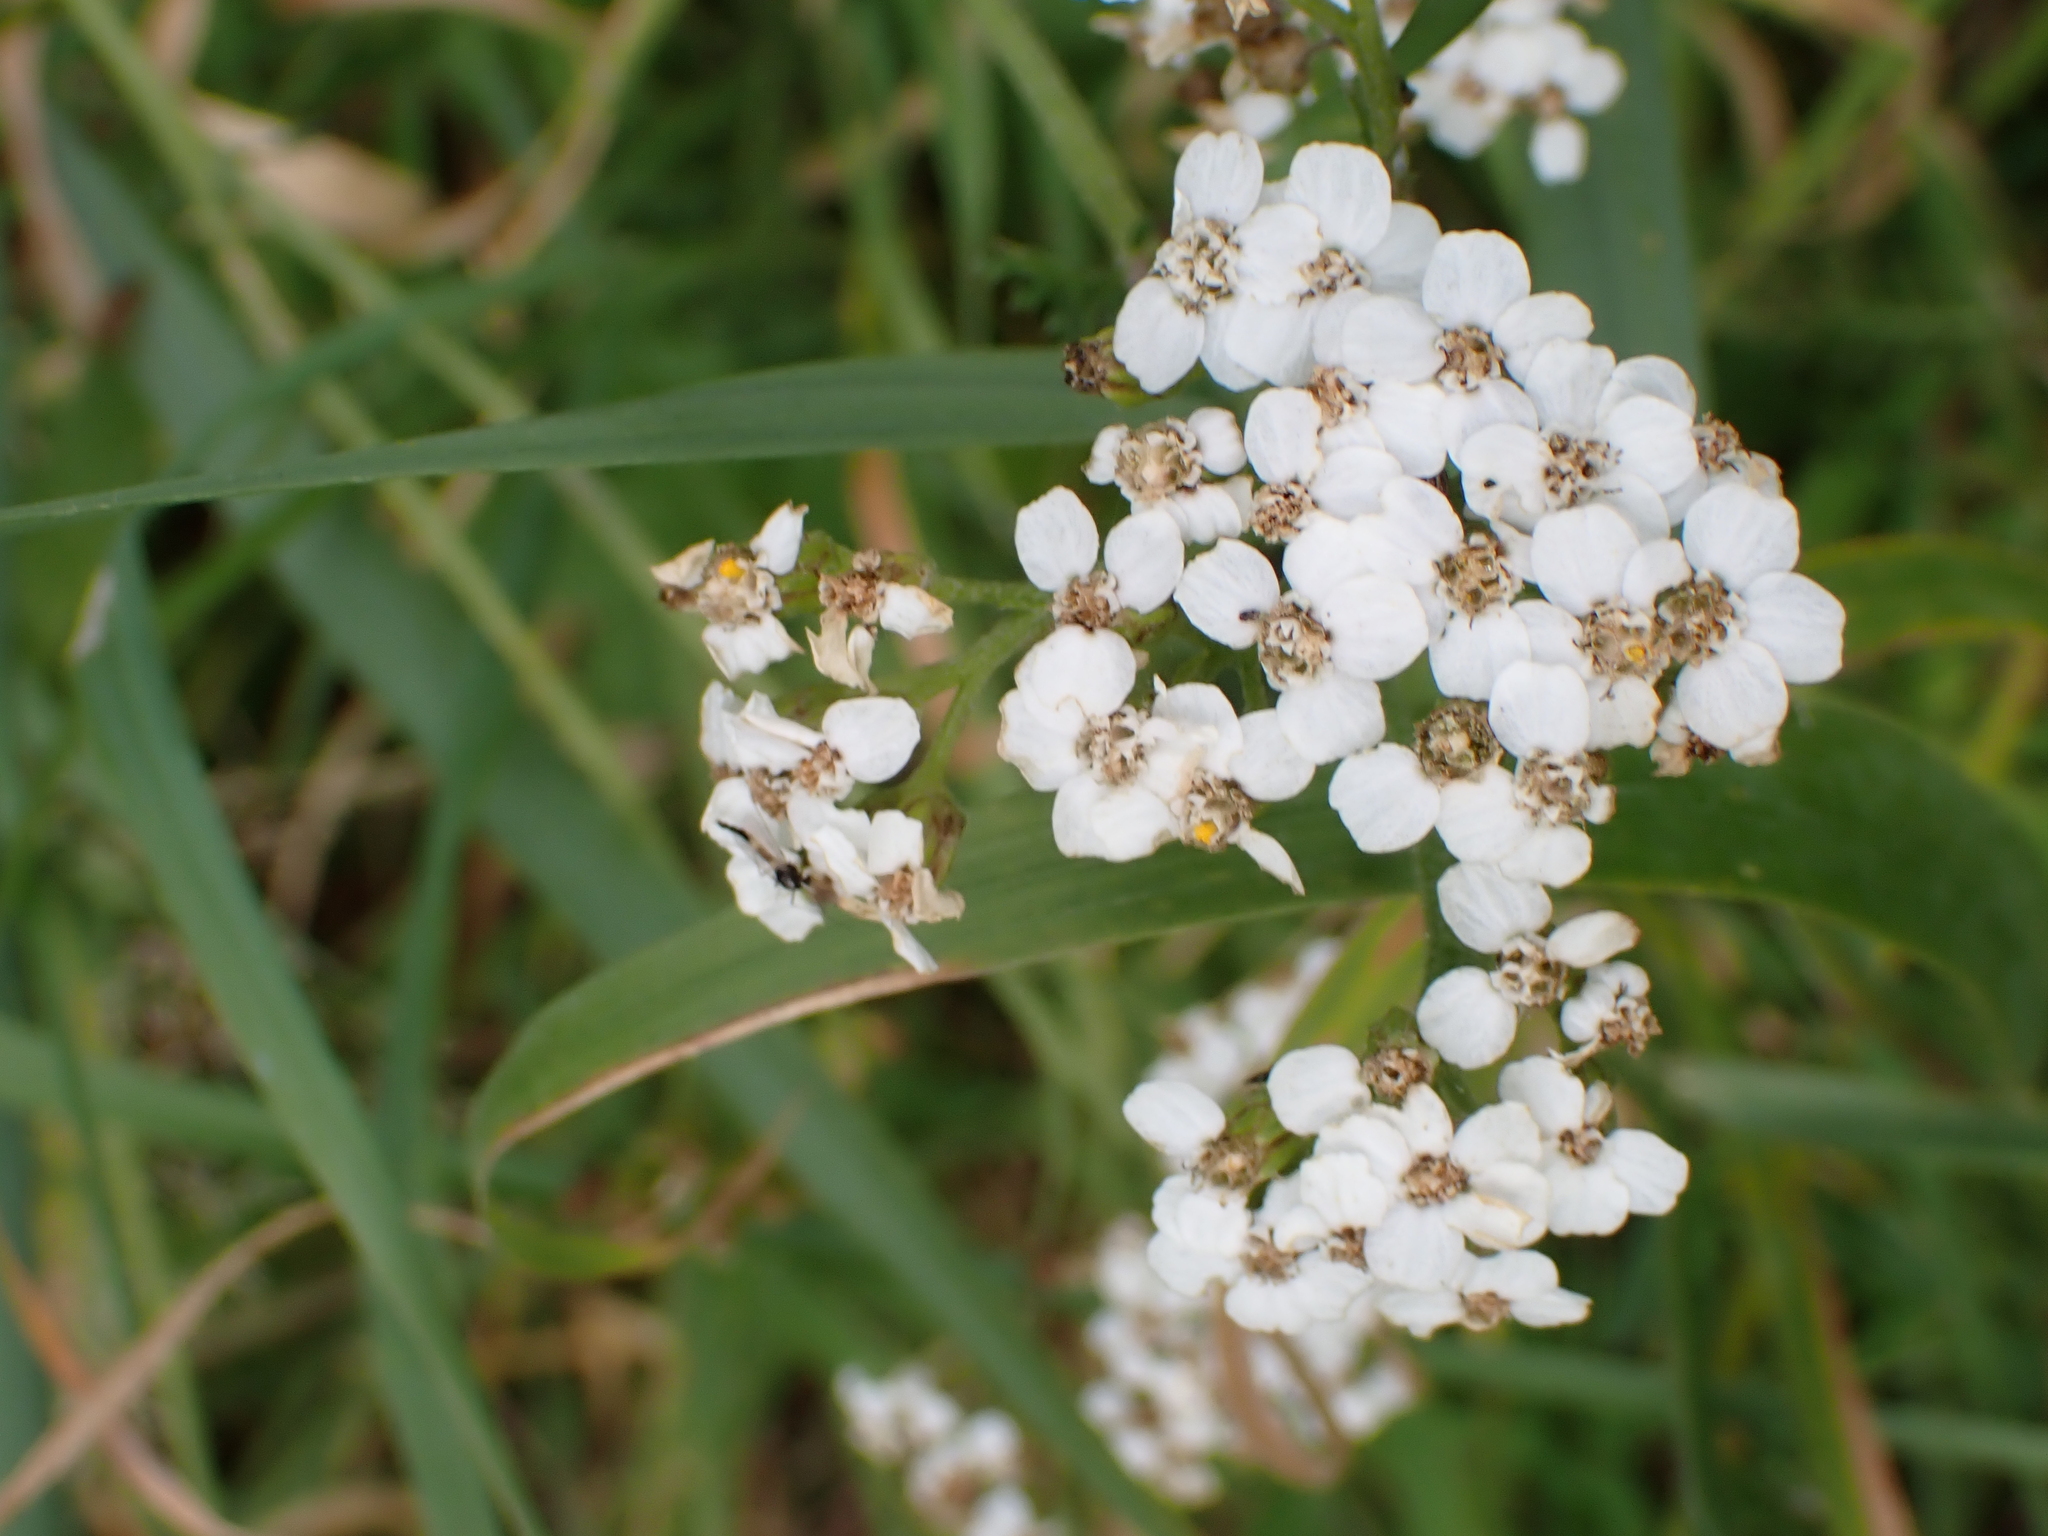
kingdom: Plantae
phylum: Tracheophyta
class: Magnoliopsida
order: Asterales
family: Asteraceae
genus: Achillea
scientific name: Achillea millefolium
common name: Yarrow
